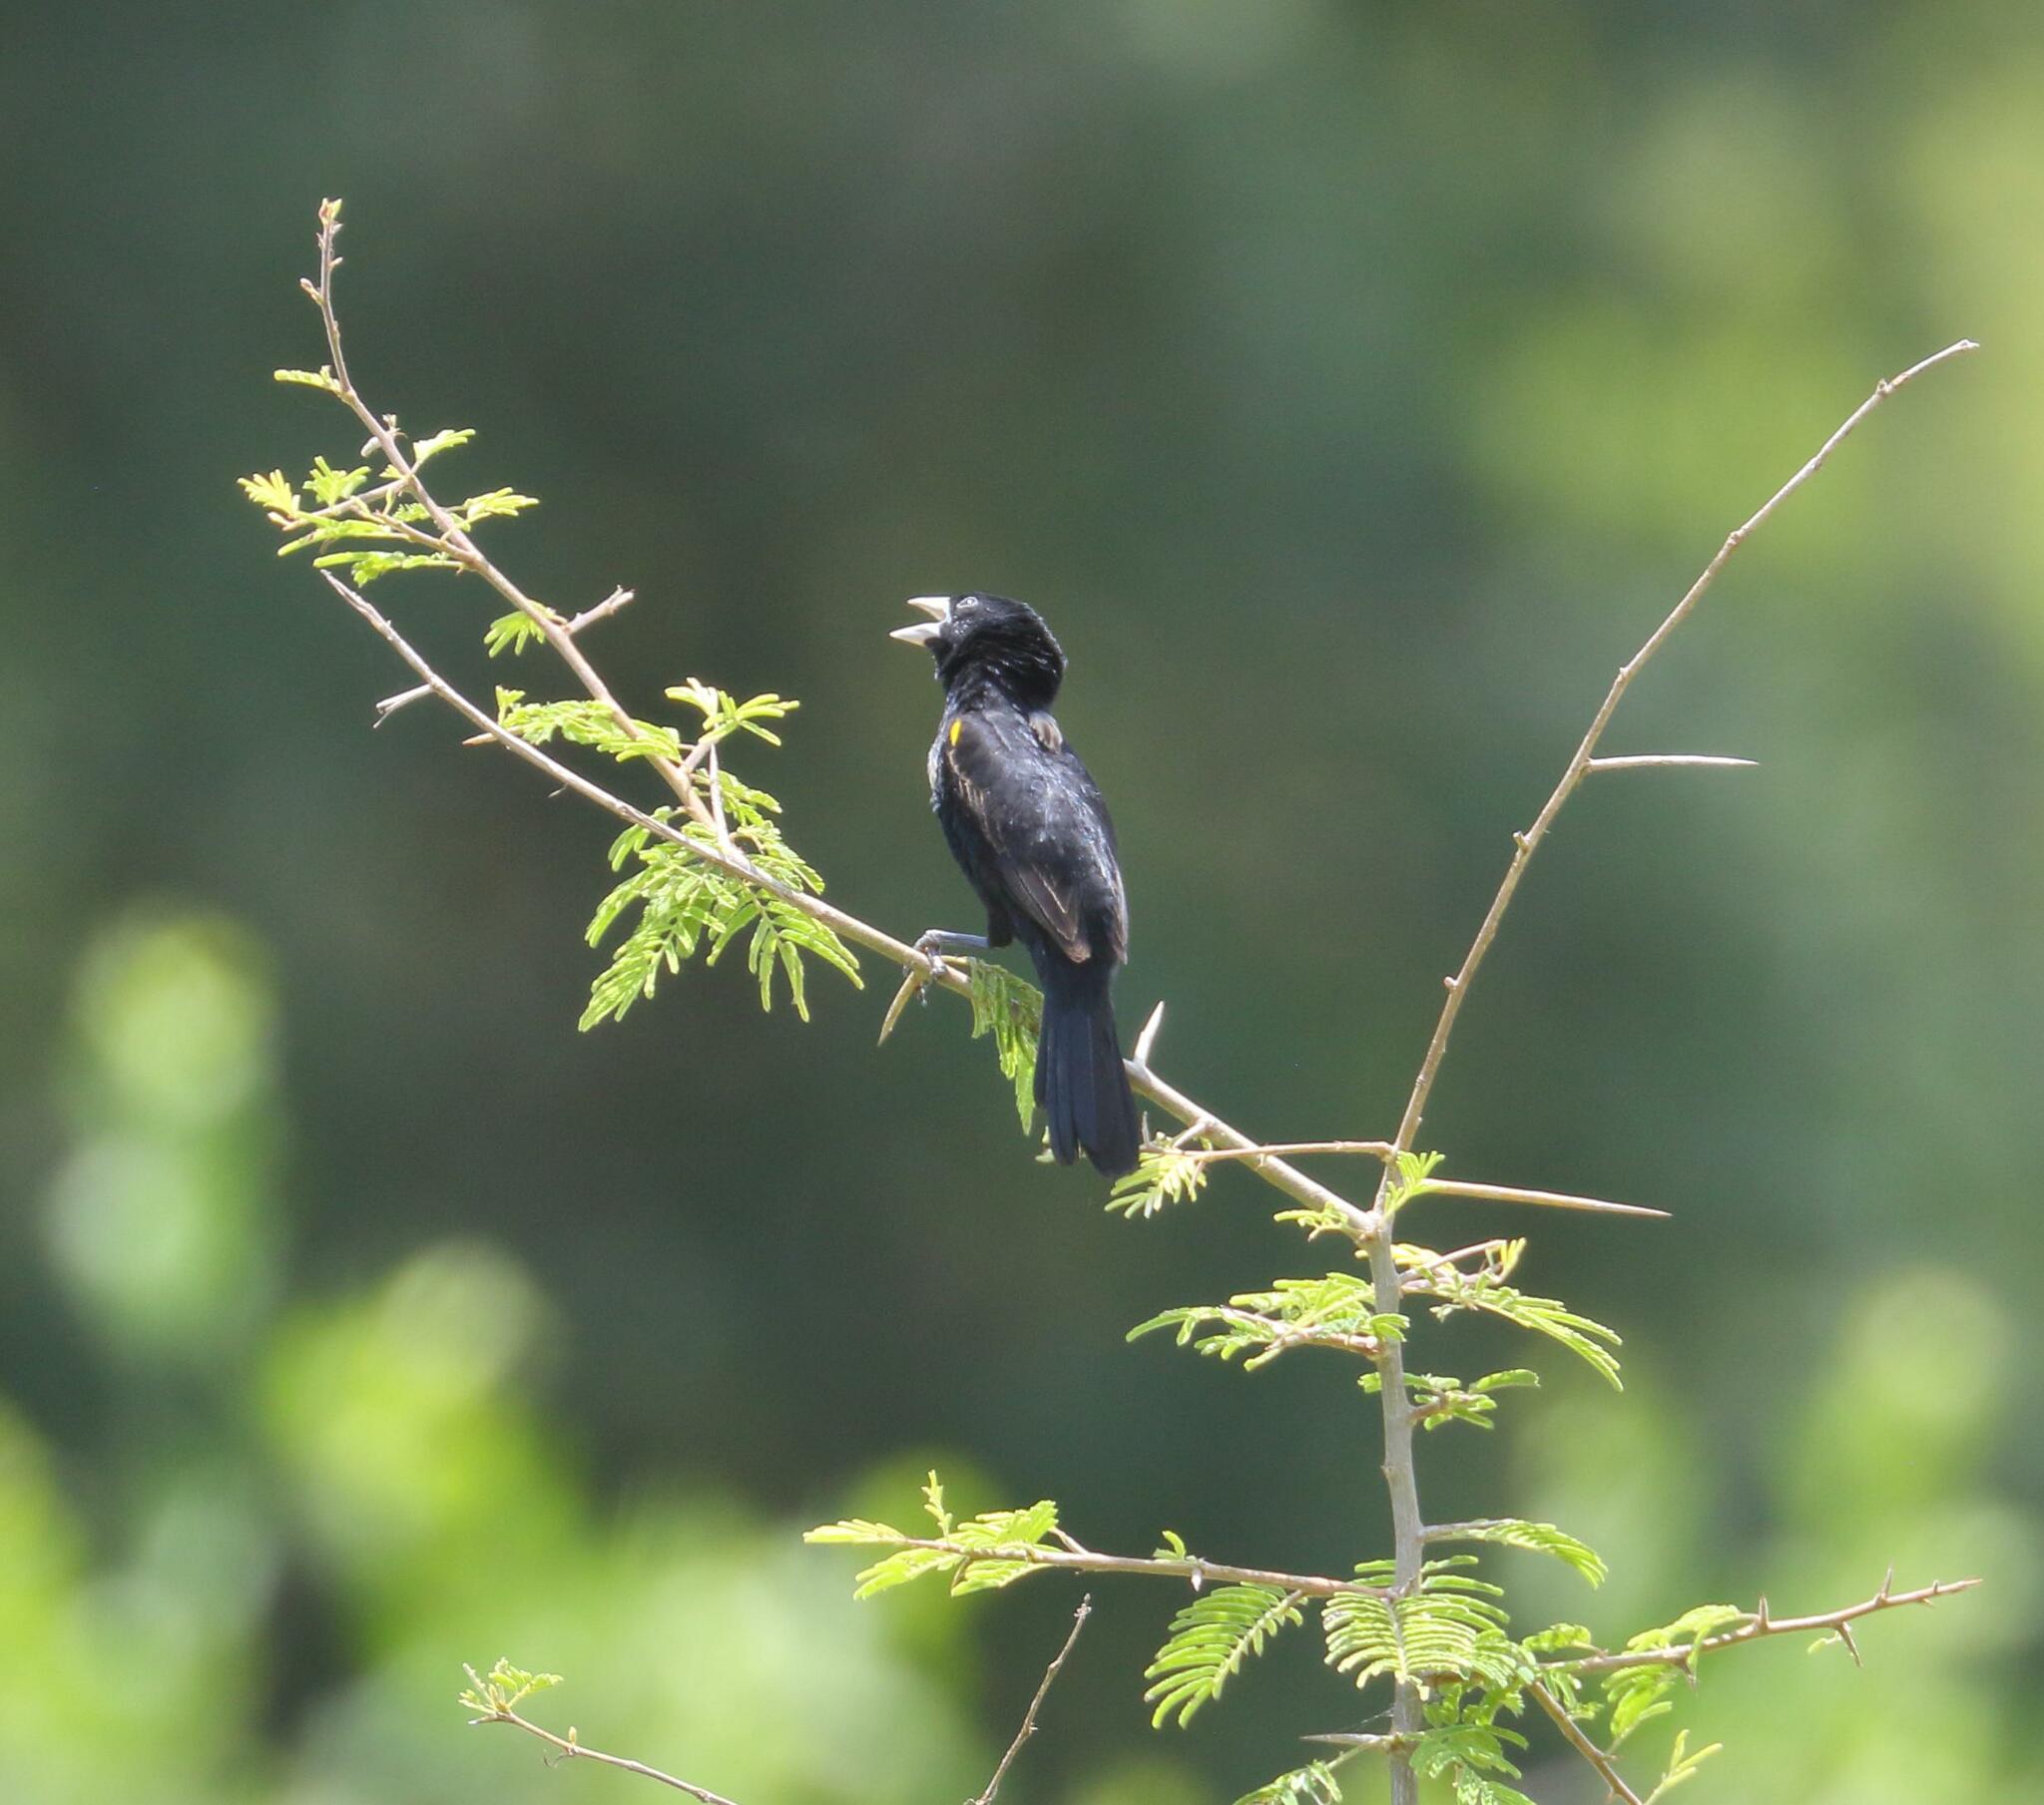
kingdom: Animalia
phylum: Chordata
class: Aves
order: Passeriformes
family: Ploceidae
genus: Euplectes
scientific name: Euplectes albonotatus
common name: White-winged widowbird
